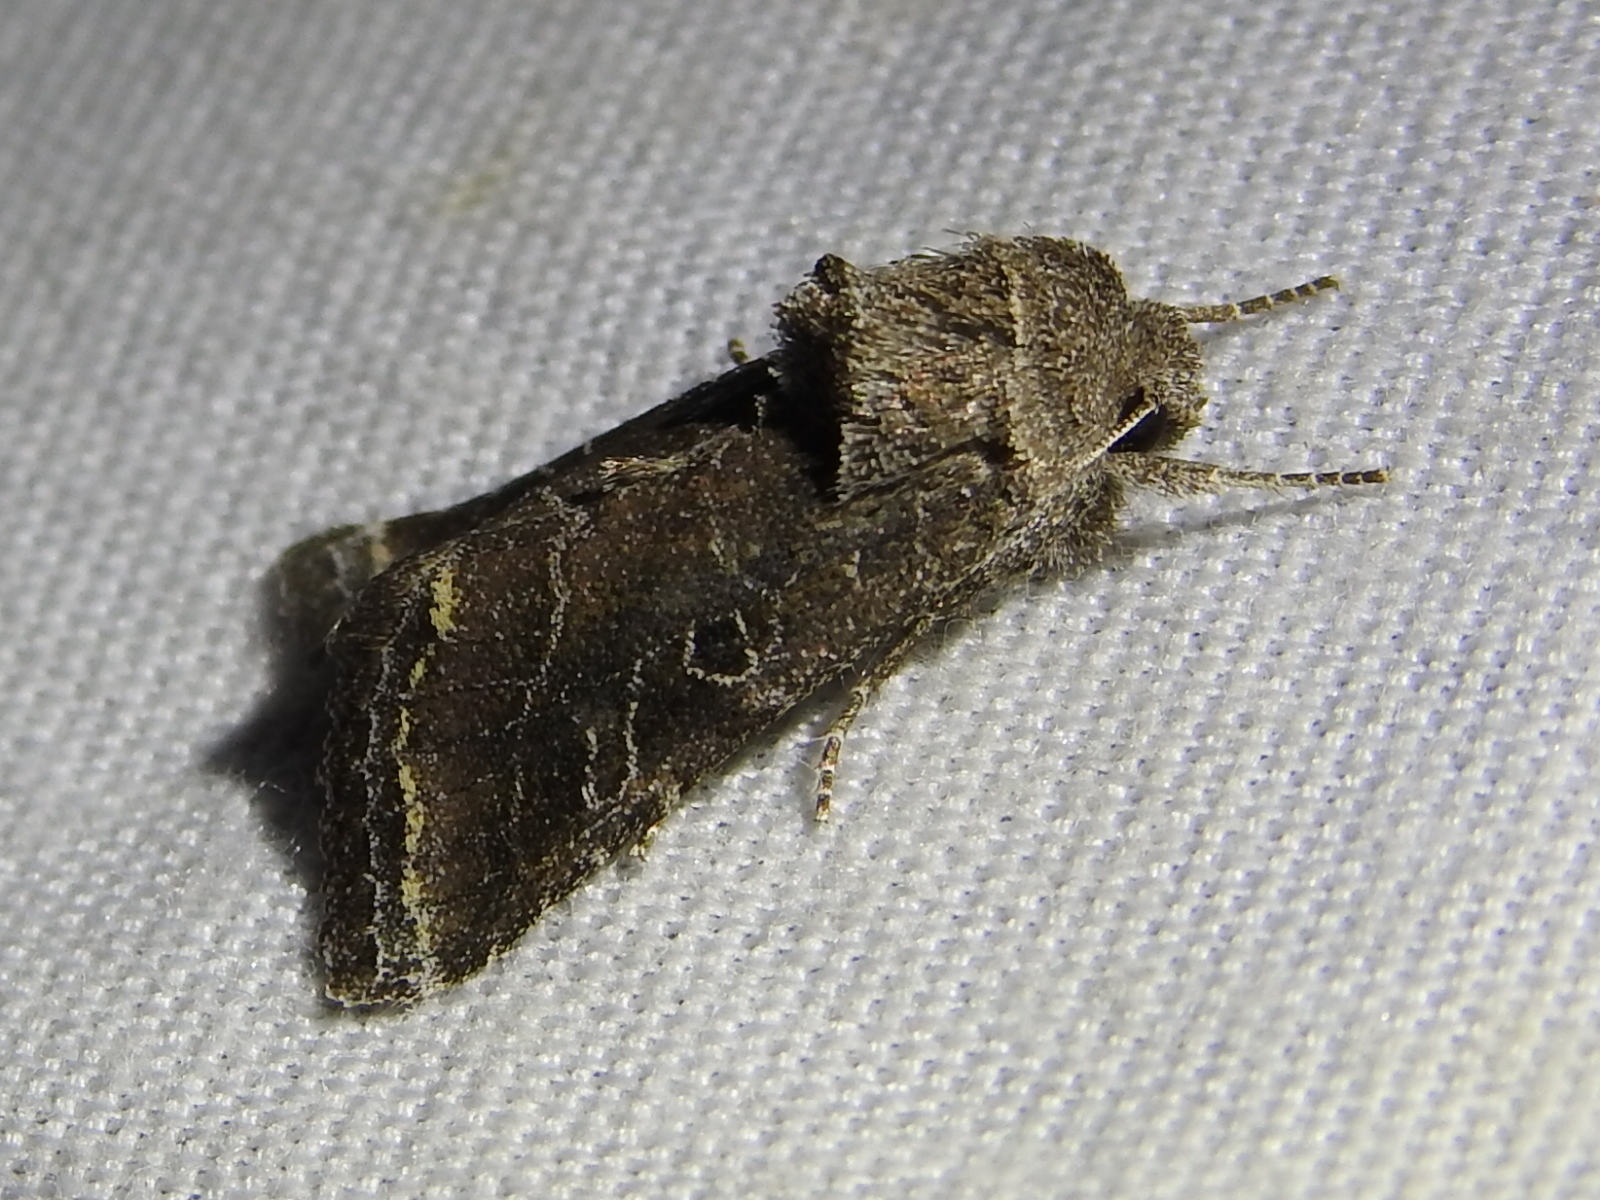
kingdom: Animalia
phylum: Arthropoda
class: Insecta
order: Lepidoptera
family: Noctuidae
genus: Lacinipolia
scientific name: Lacinipolia erecta
